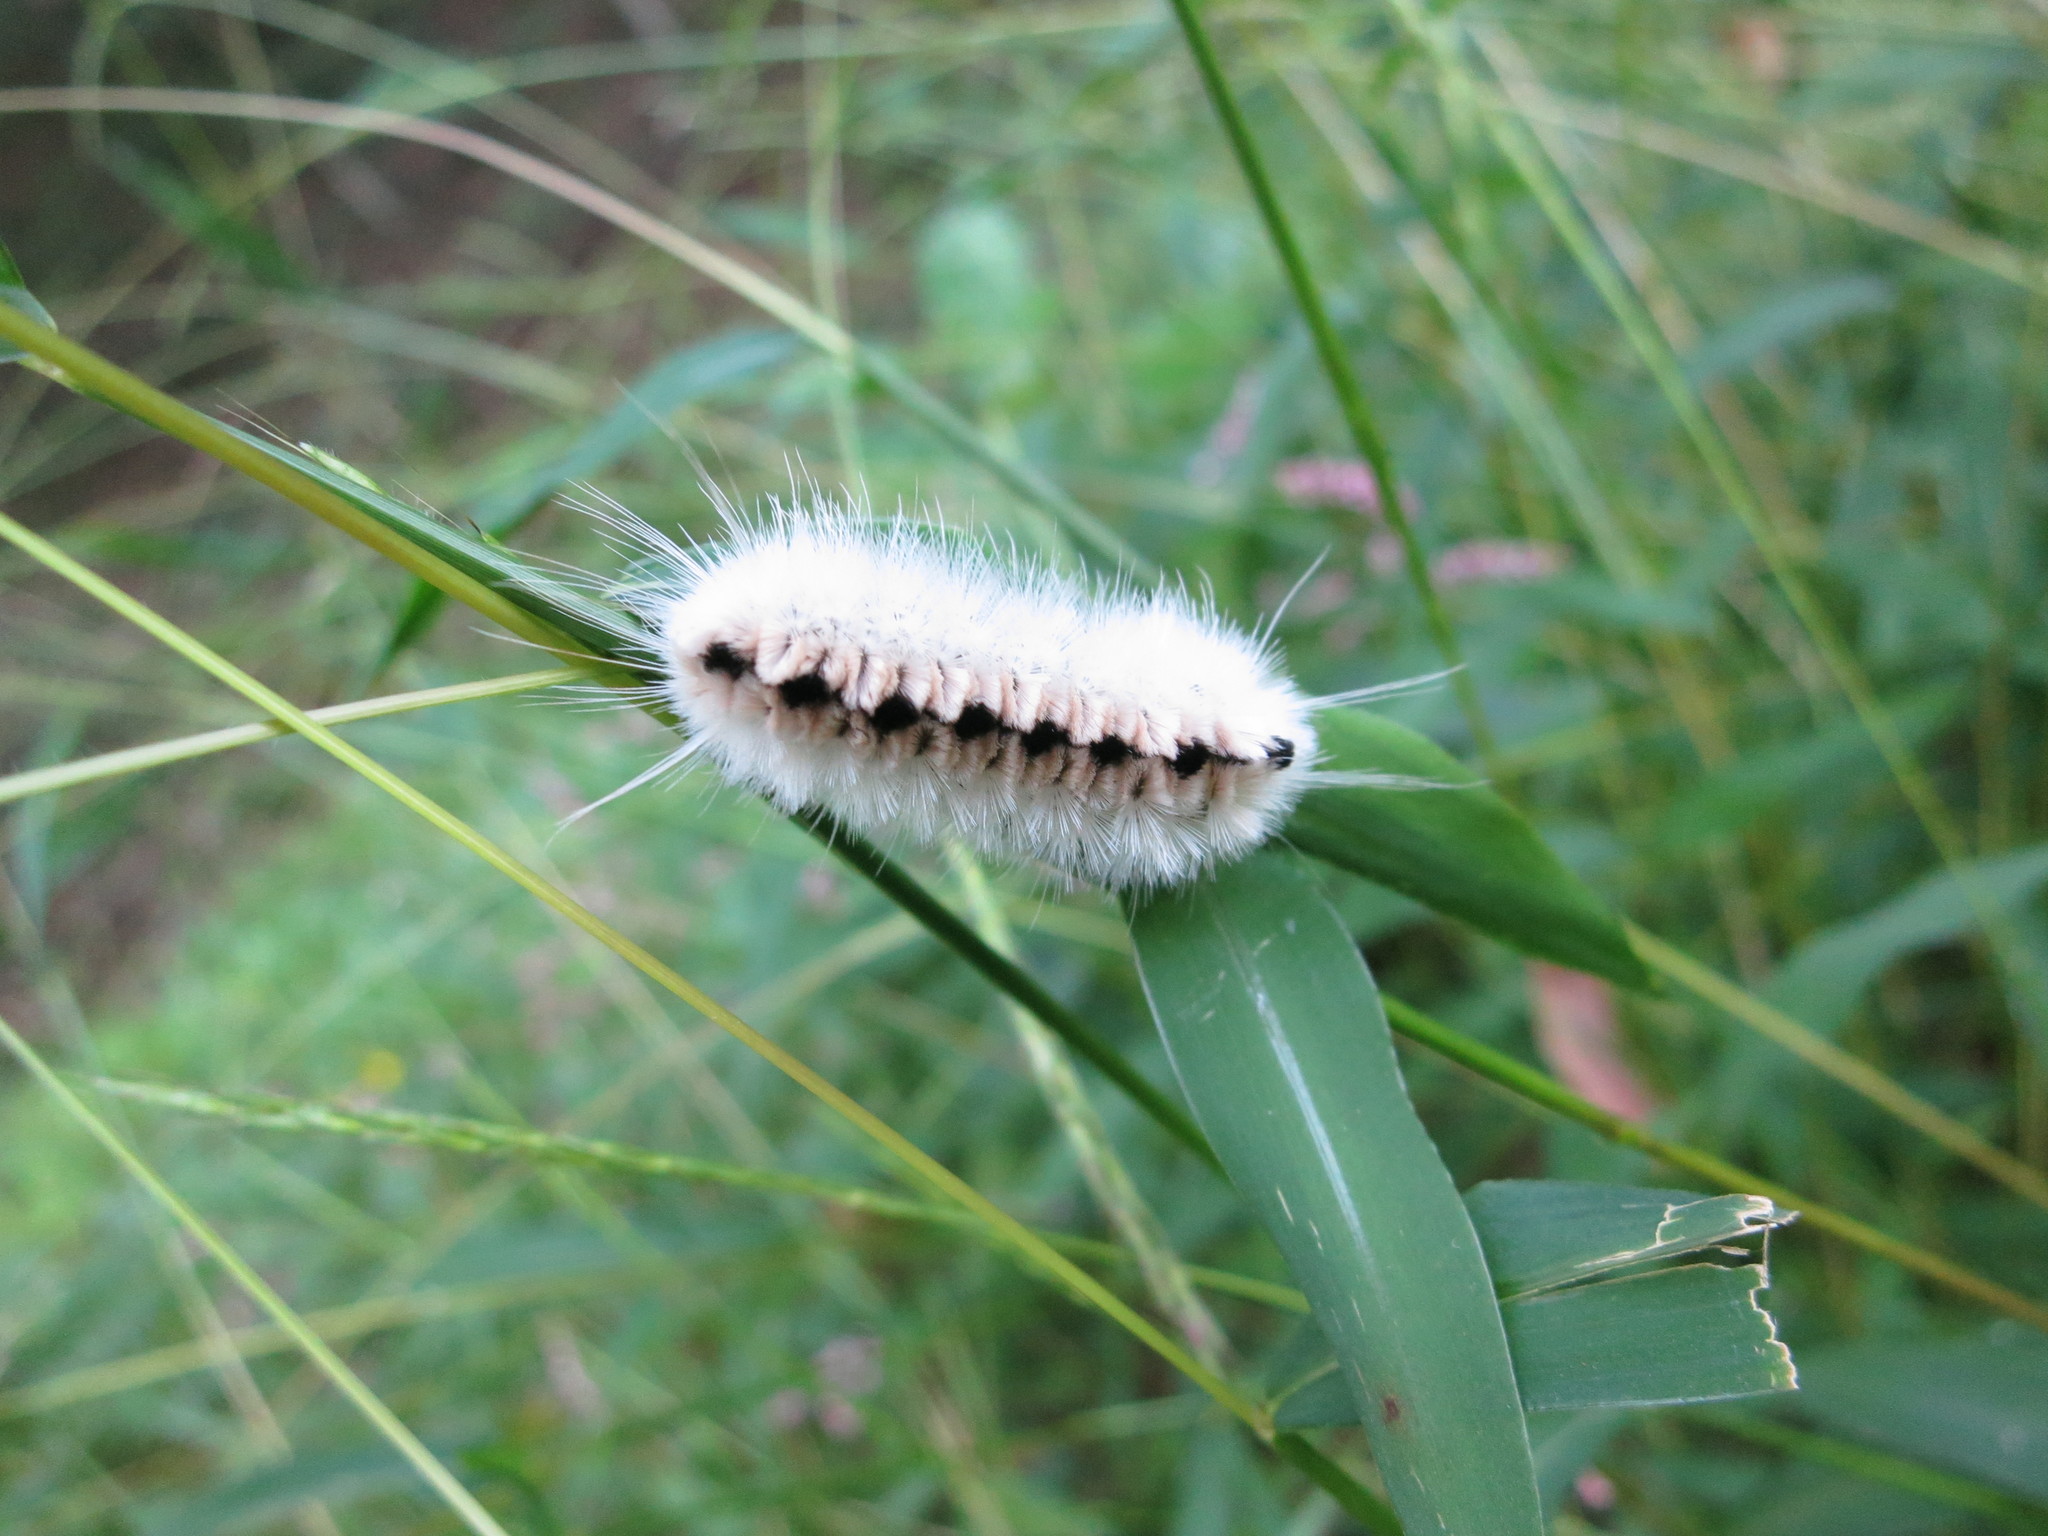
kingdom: Animalia
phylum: Arthropoda
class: Insecta
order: Lepidoptera
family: Erebidae
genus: Lophocampa
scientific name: Lophocampa caryae
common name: Hickory tussock moth
